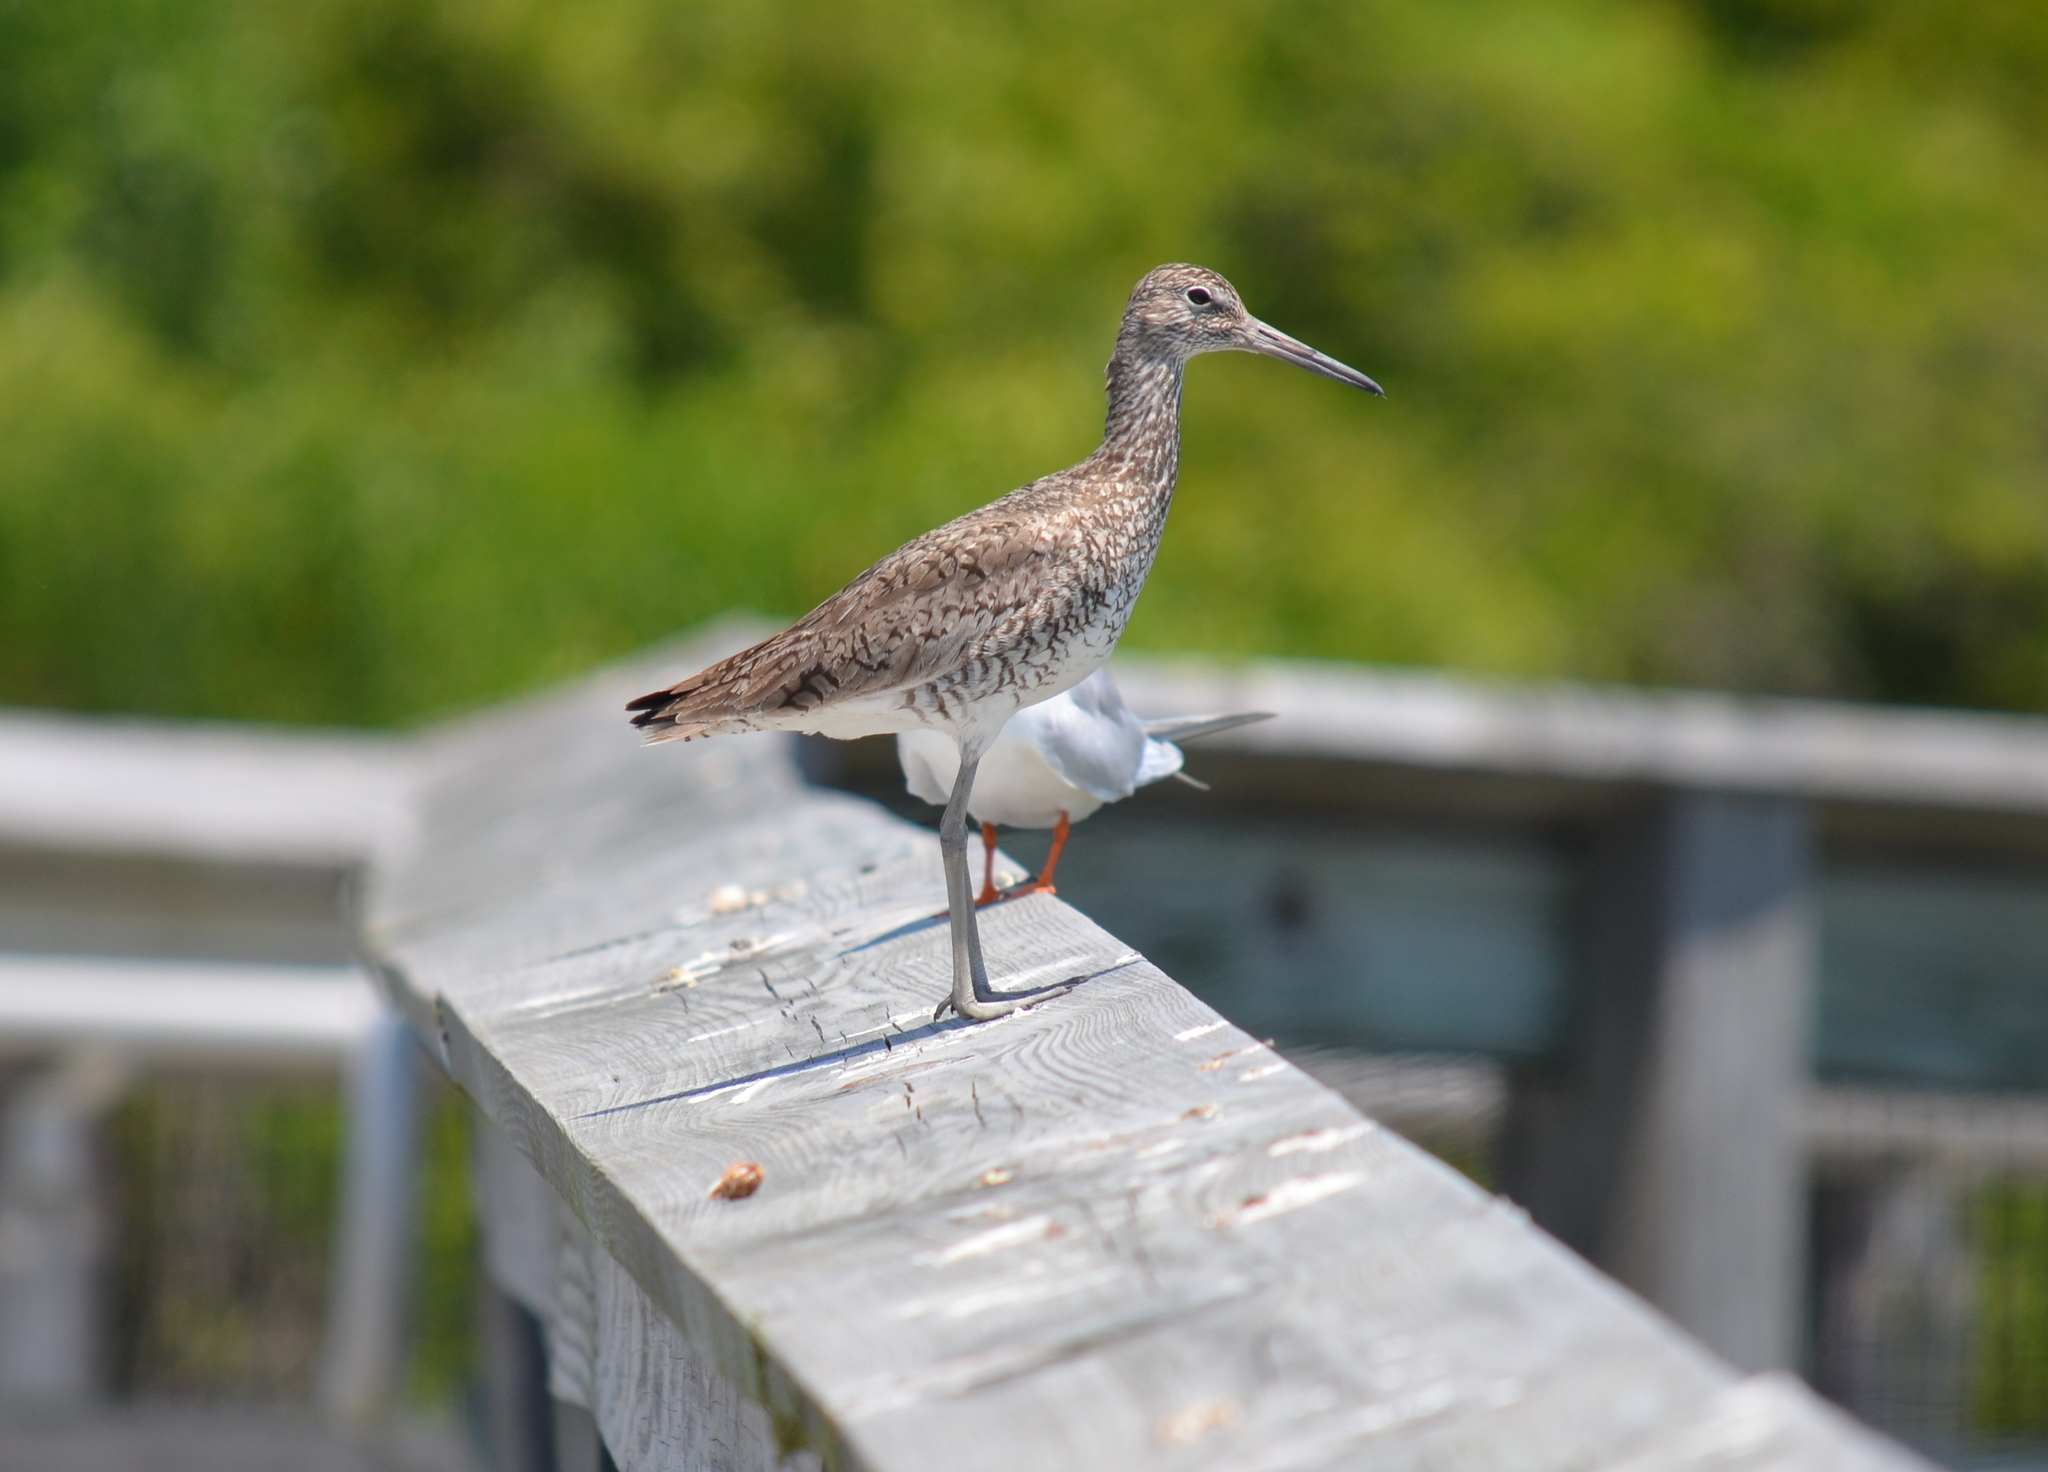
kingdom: Animalia
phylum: Chordata
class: Aves
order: Charadriiformes
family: Scolopacidae
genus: Tringa
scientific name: Tringa semipalmata
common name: Willet
